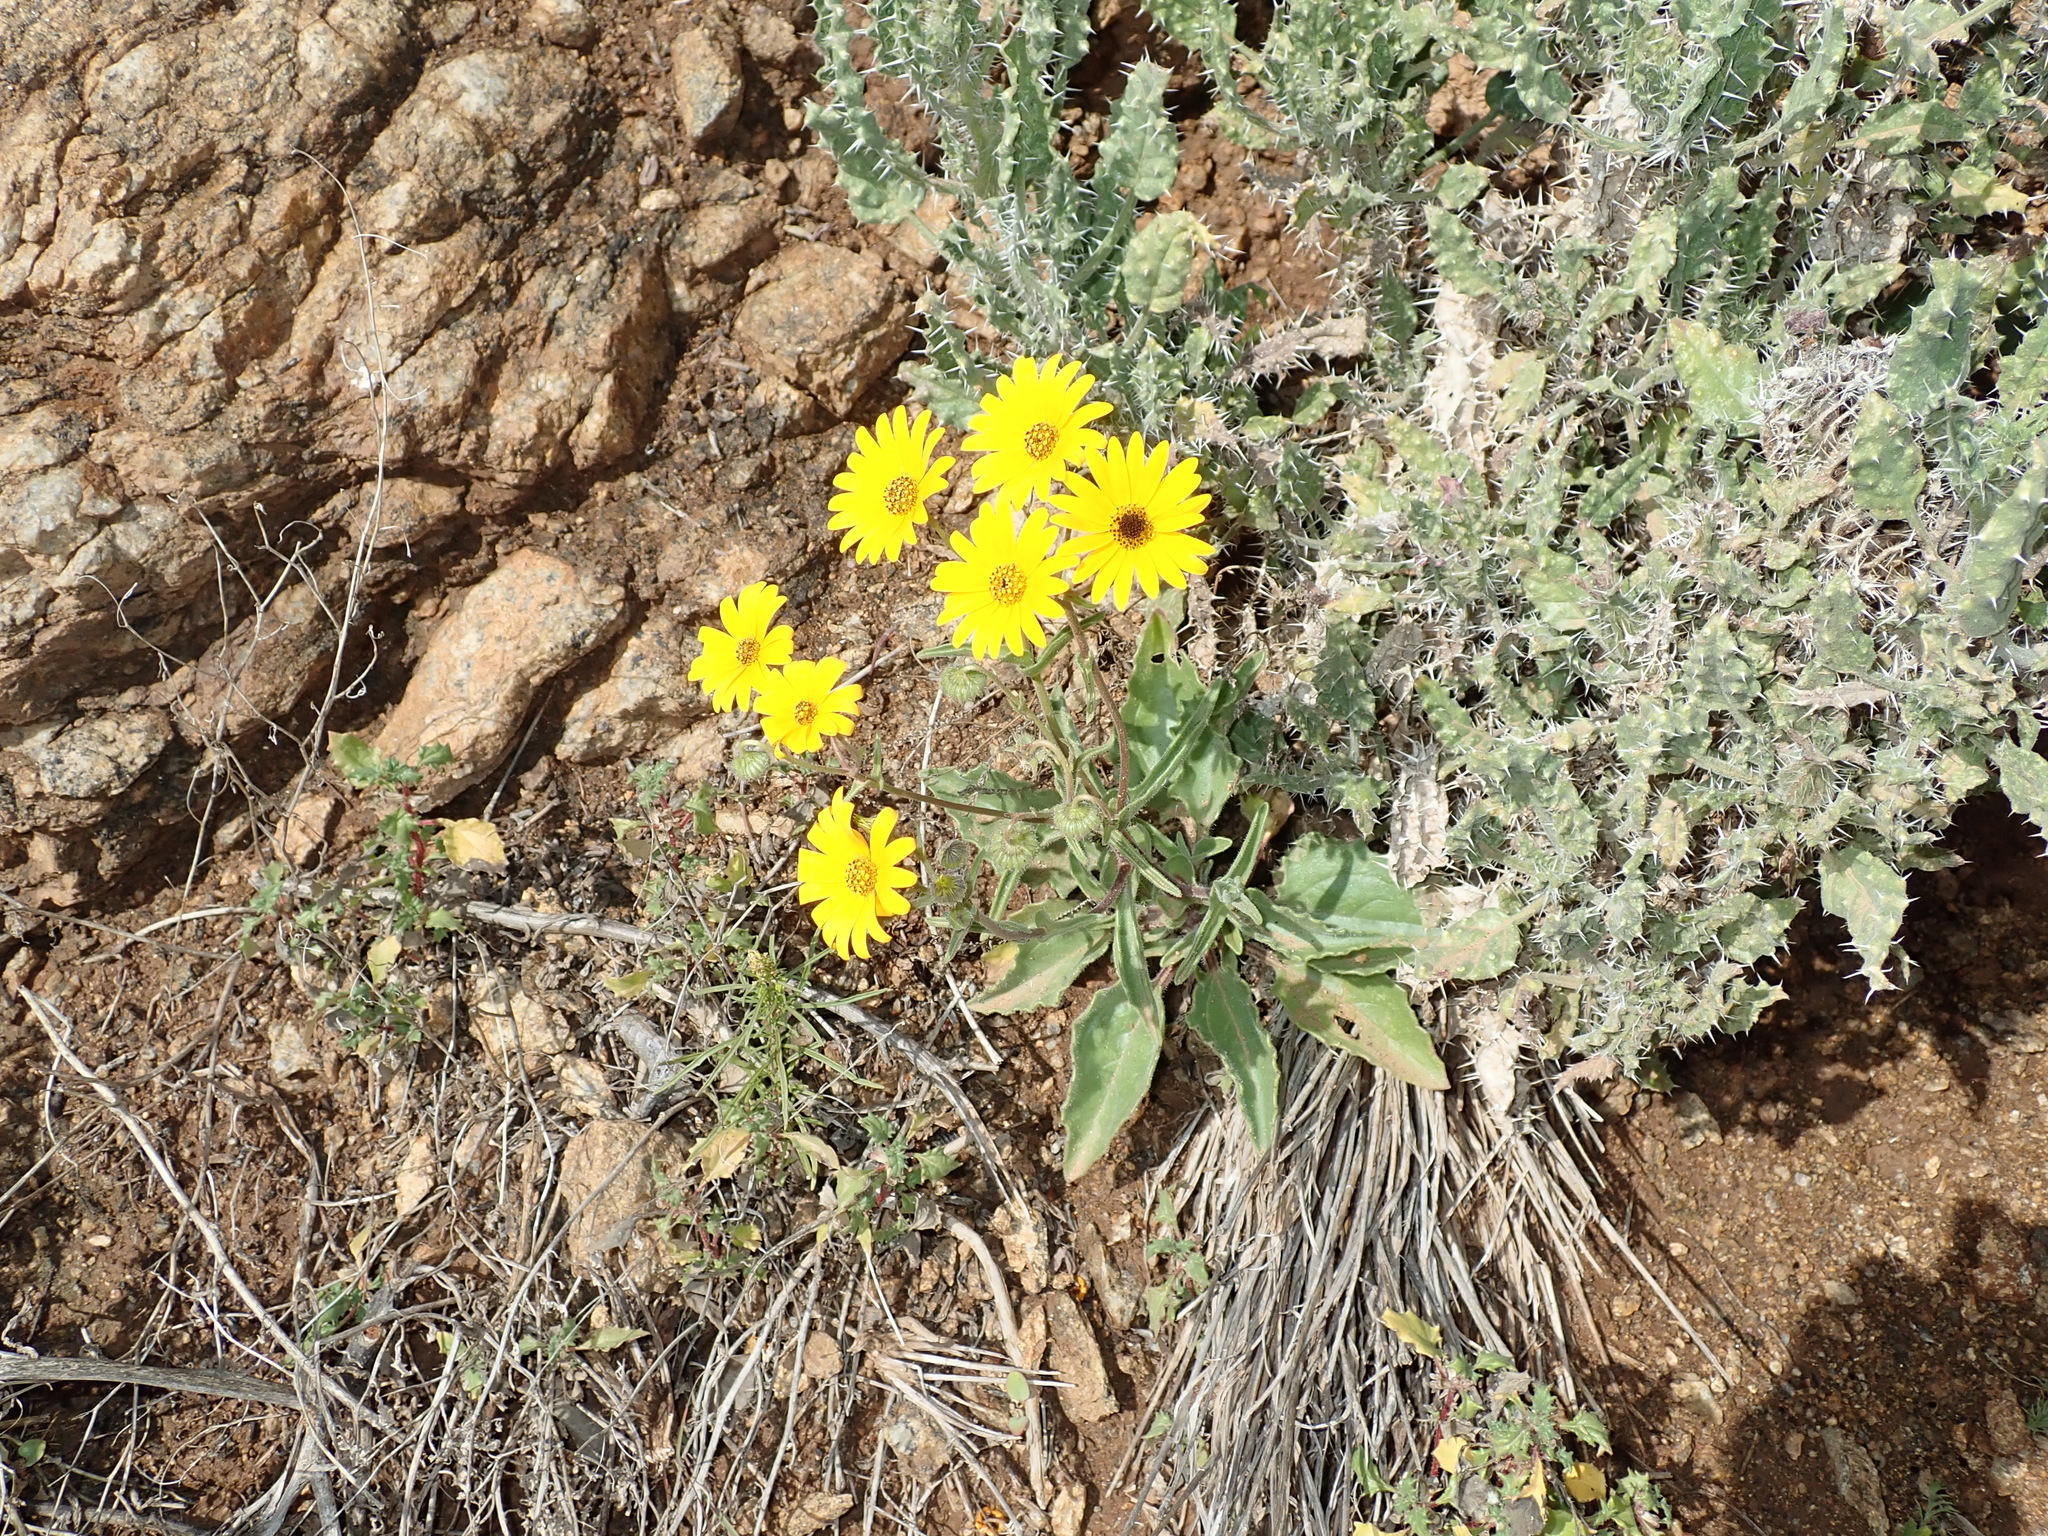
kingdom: Plantae
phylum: Tracheophyta
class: Magnoliopsida
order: Asterales
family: Asteraceae
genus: Osteospermum
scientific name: Osteospermum amplectens
